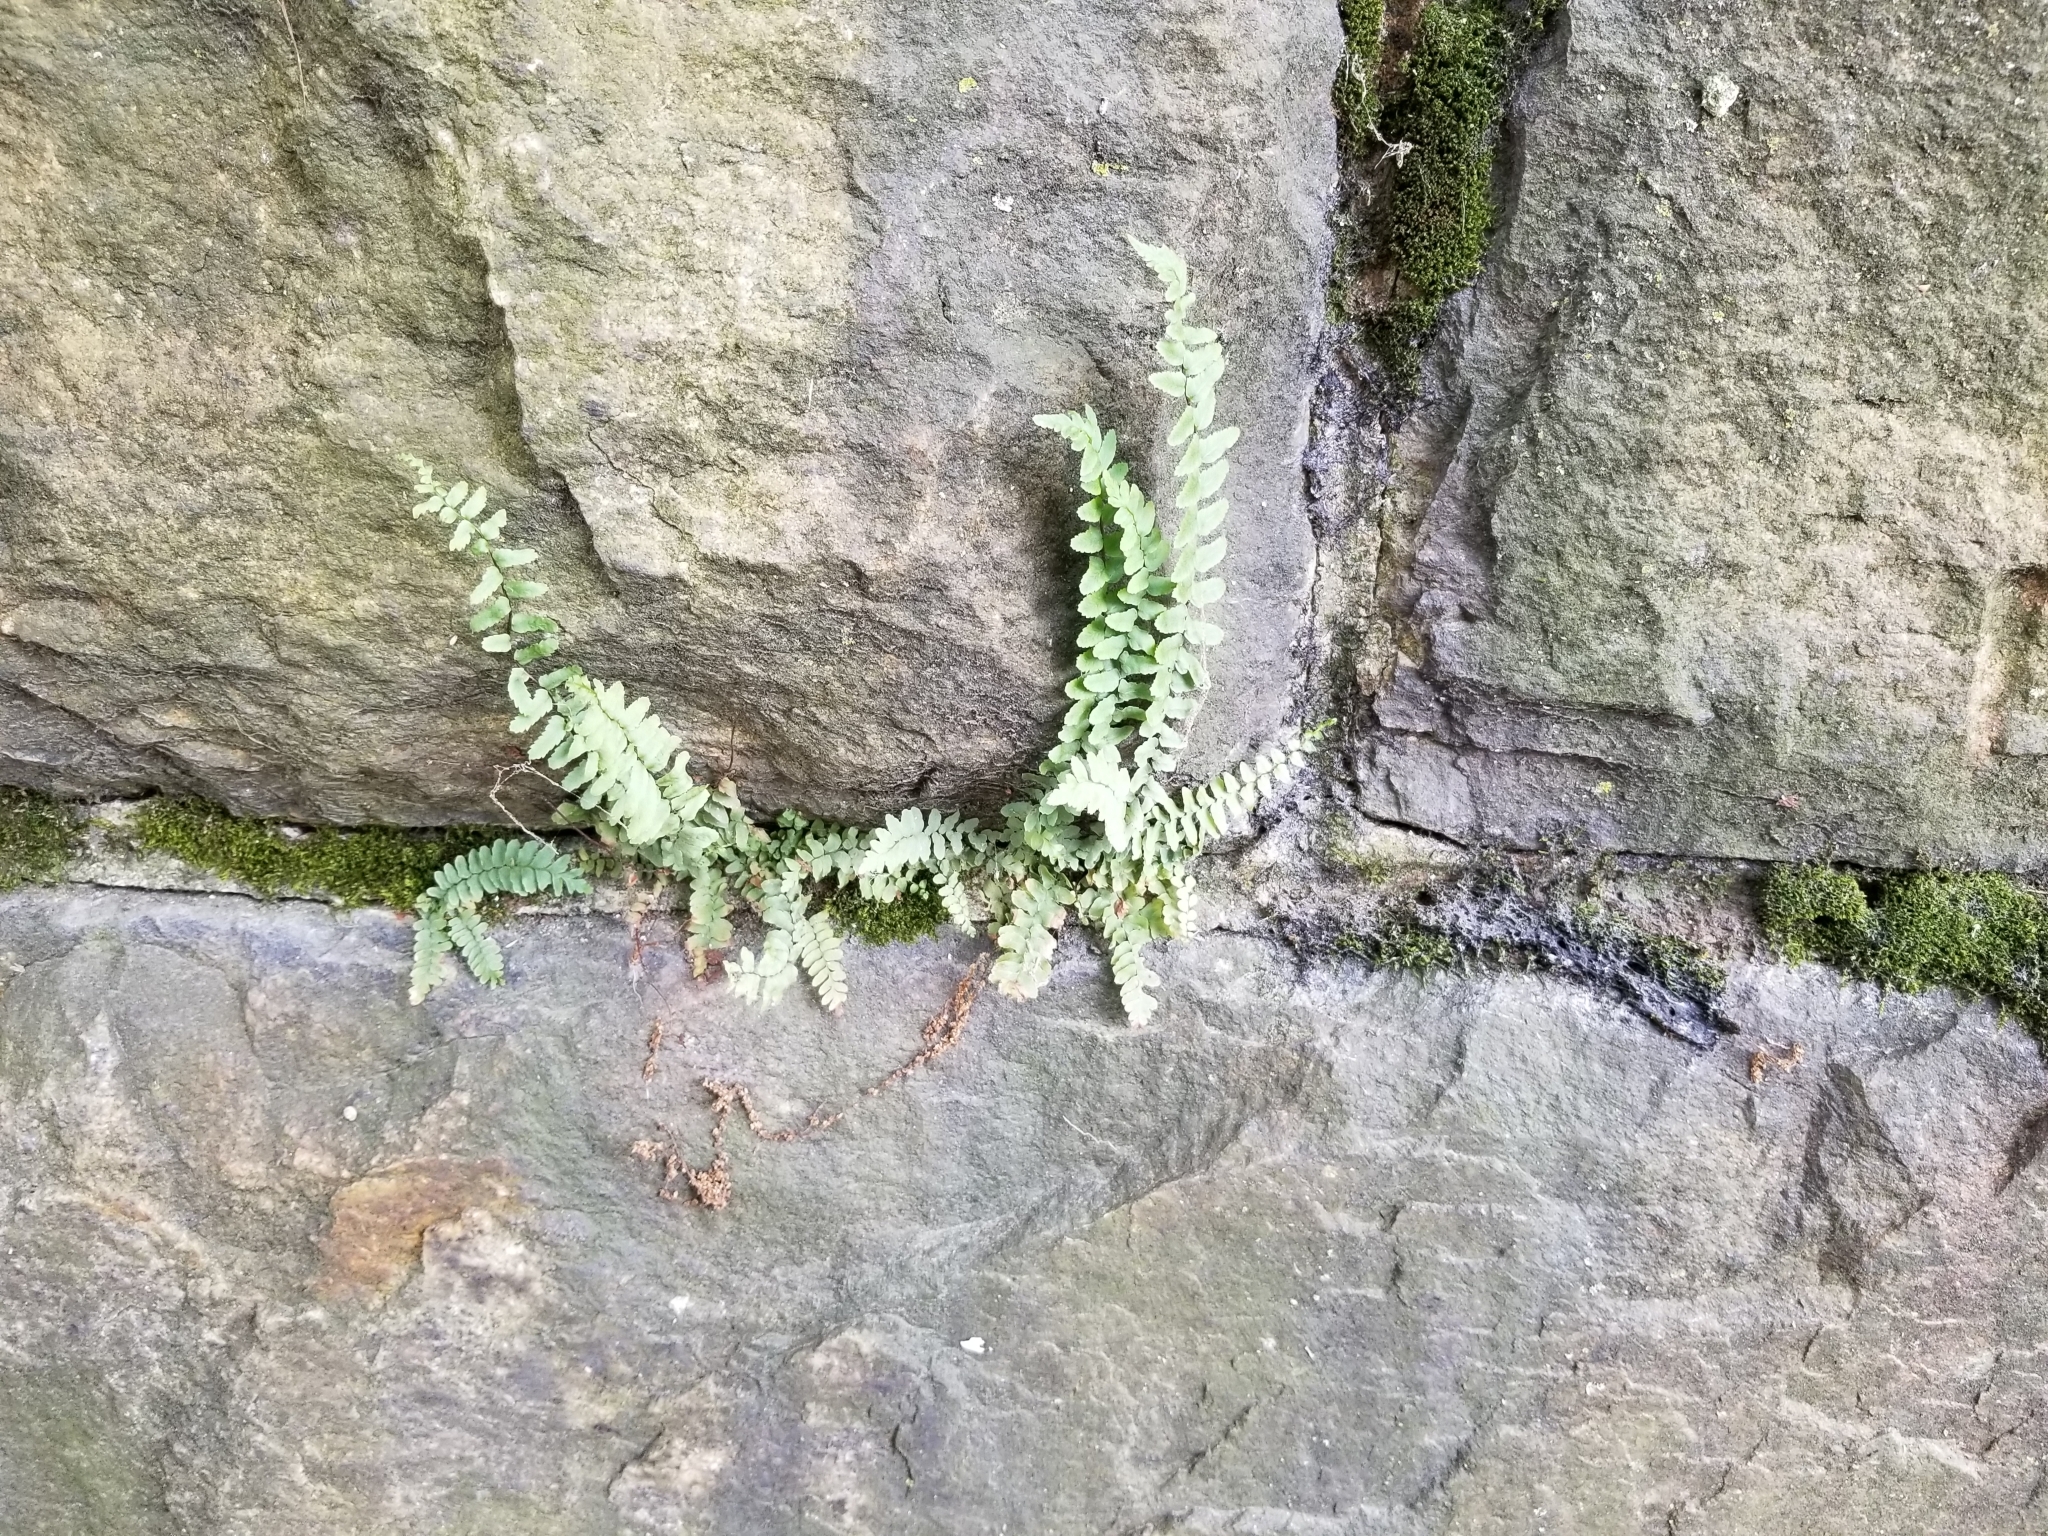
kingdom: Plantae
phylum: Tracheophyta
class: Polypodiopsida
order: Polypodiales
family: Aspleniaceae
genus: Asplenium
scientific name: Asplenium platyneuron
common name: Ebony spleenwort
